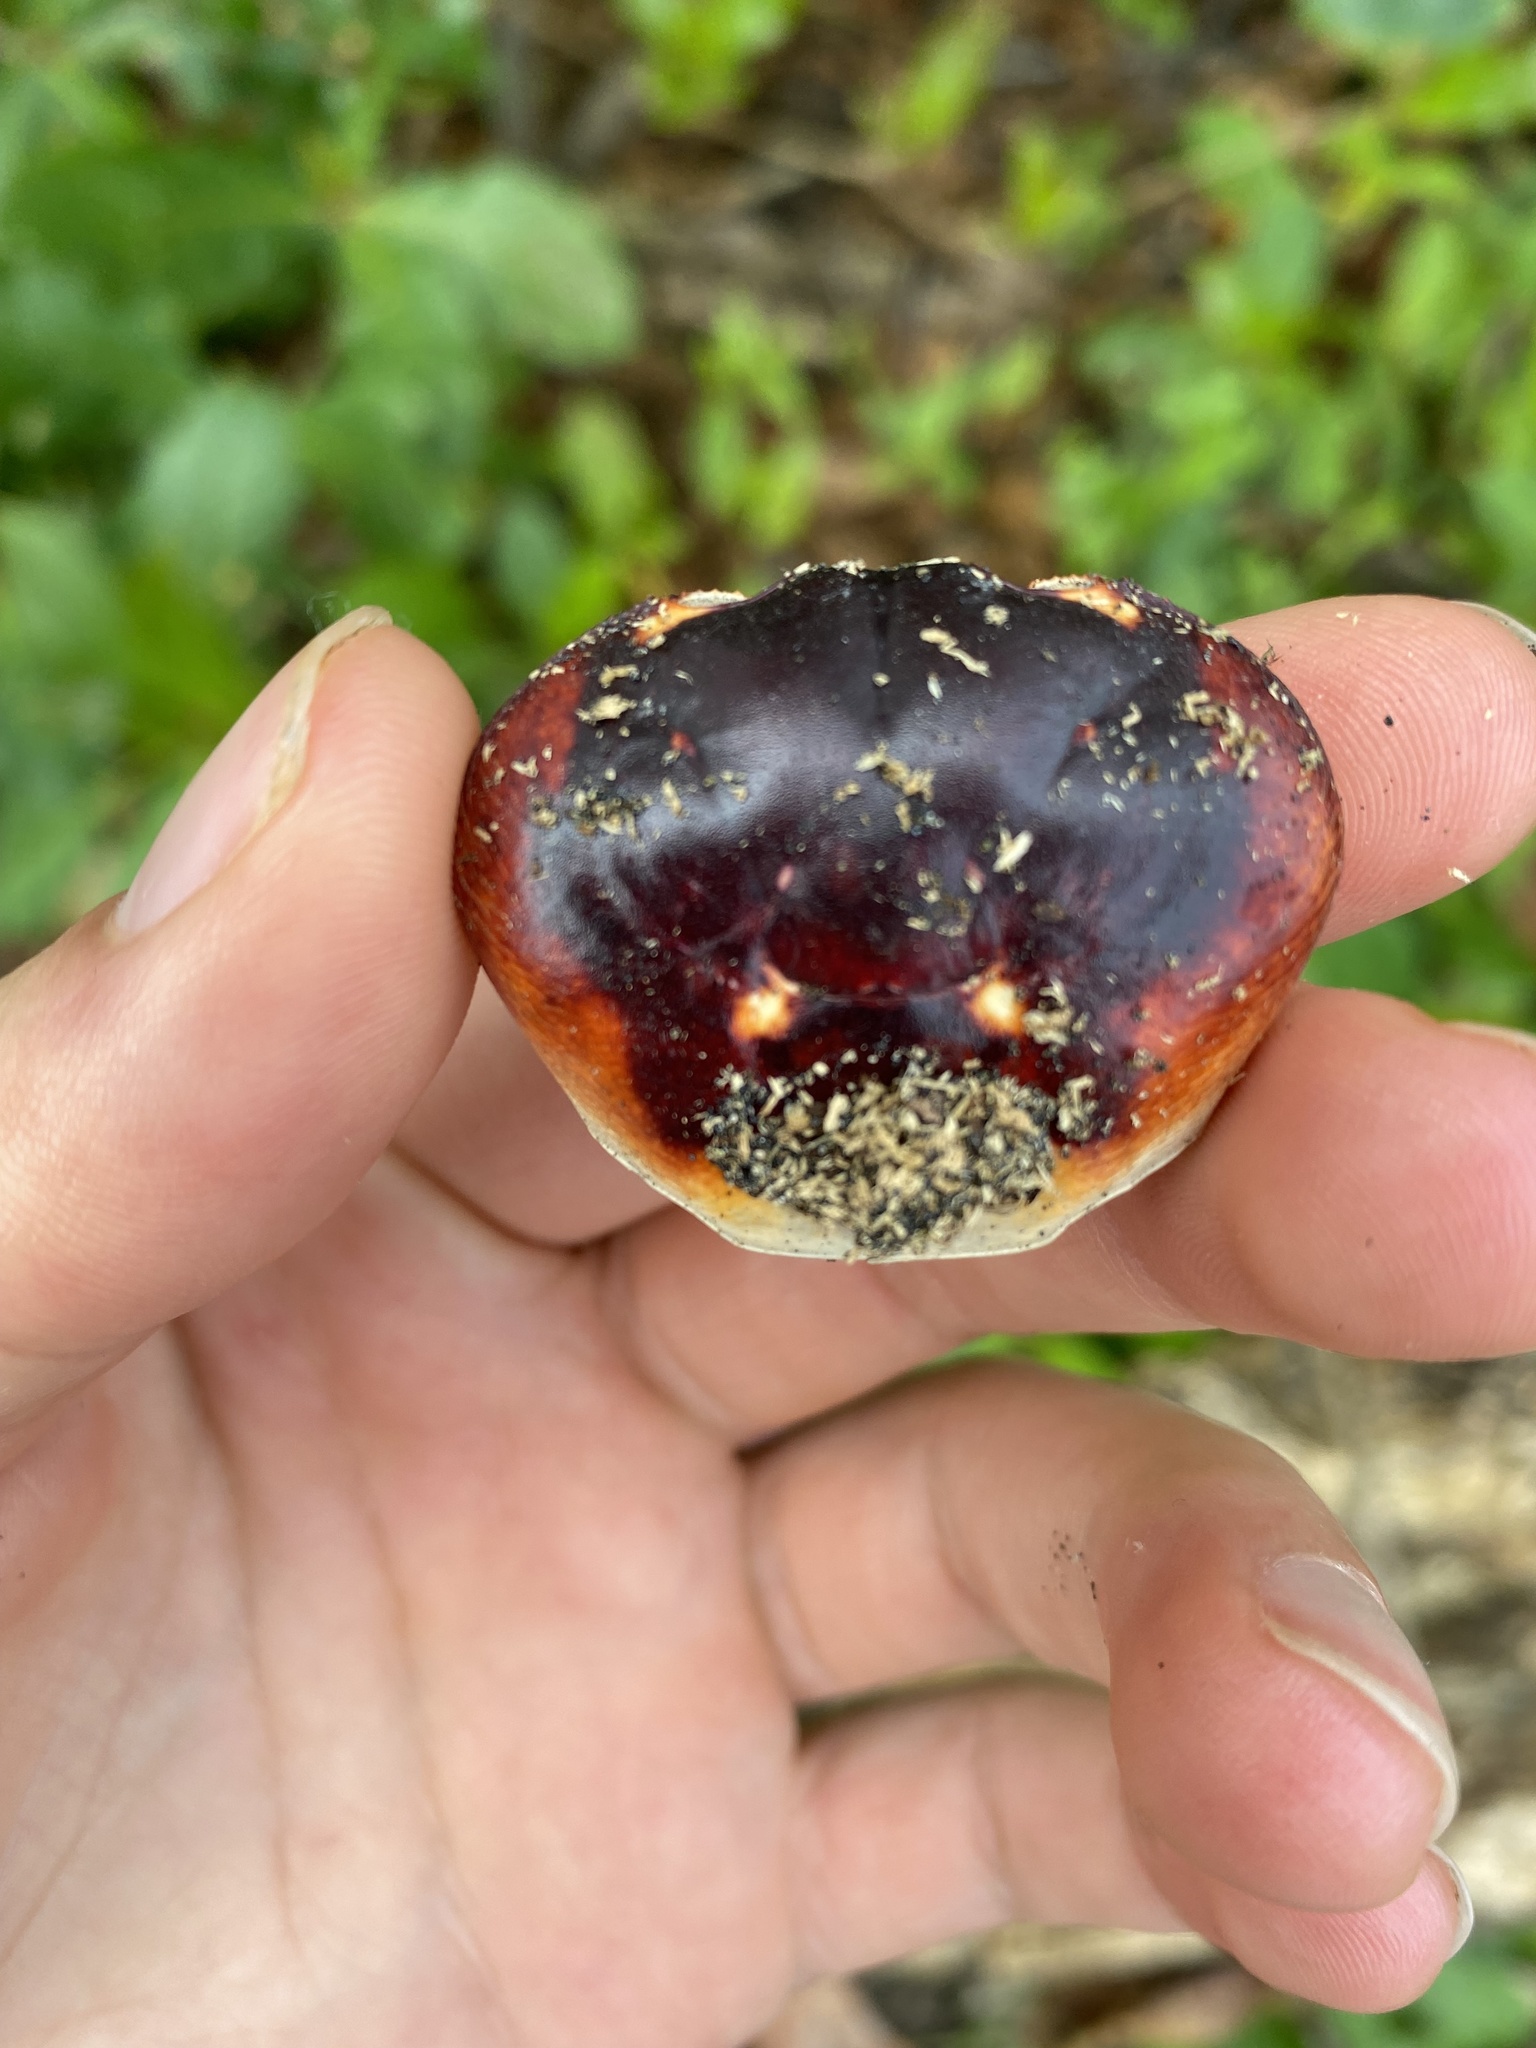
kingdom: Animalia
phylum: Arthropoda
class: Malacostraca
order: Decapoda
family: Gecarcinidae
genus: Gecarcinus
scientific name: Gecarcinus lateralis
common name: Bermuda land crab
